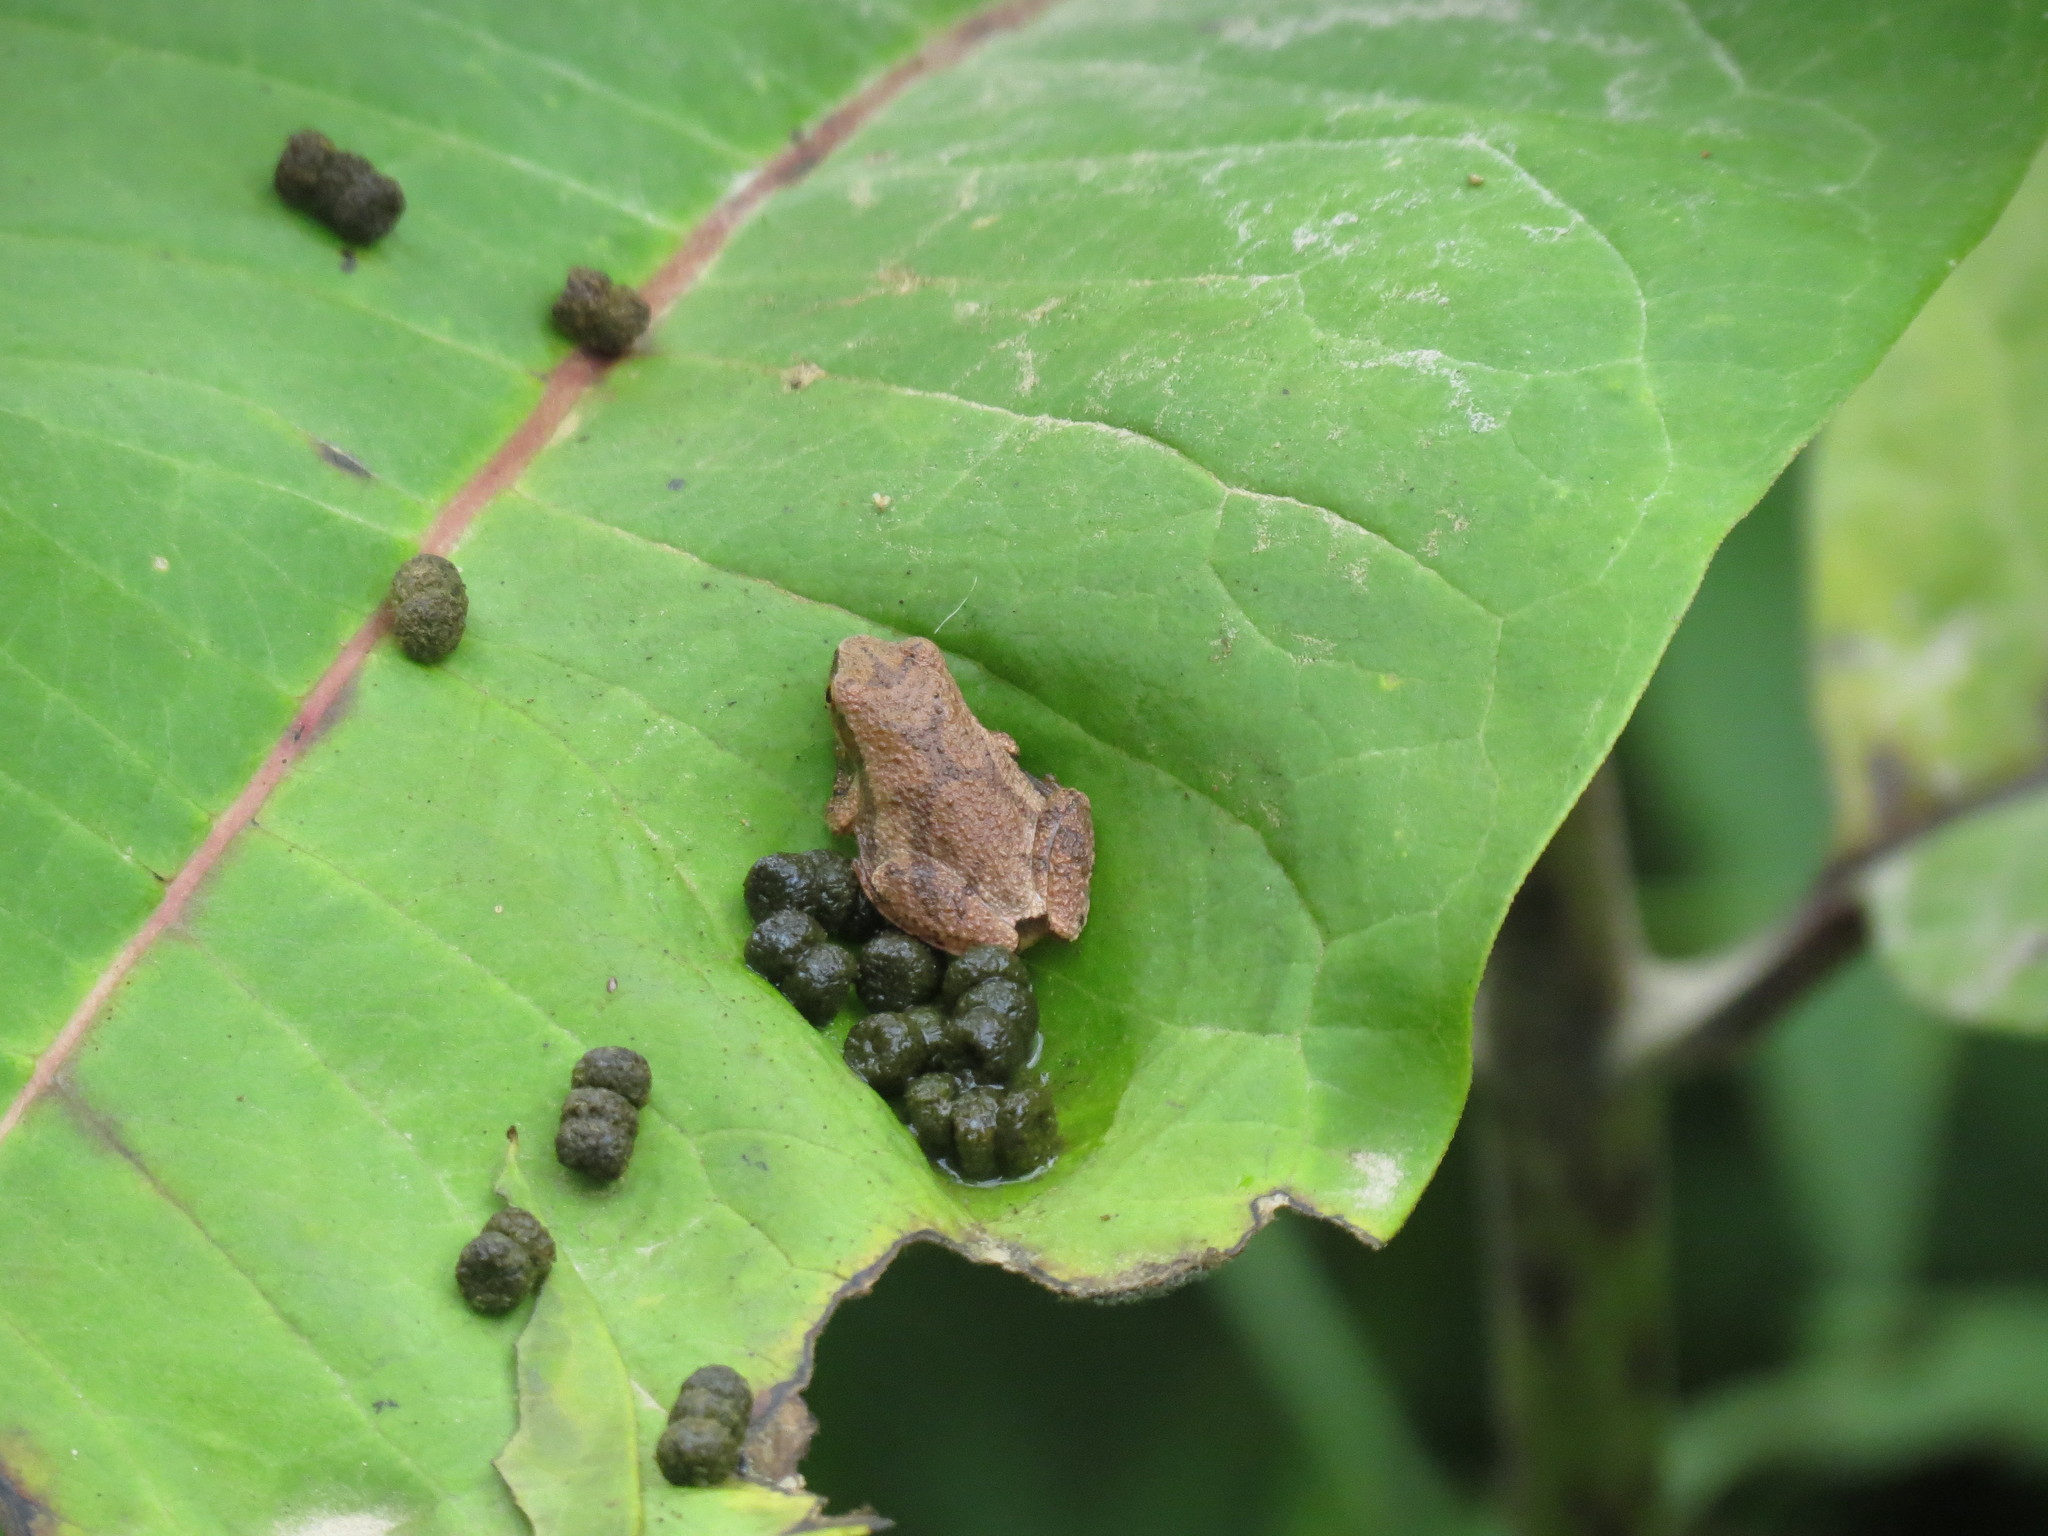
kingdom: Animalia
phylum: Chordata
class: Amphibia
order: Anura
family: Hylidae
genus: Pseudacris
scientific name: Pseudacris crucifer
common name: Spring peeper
